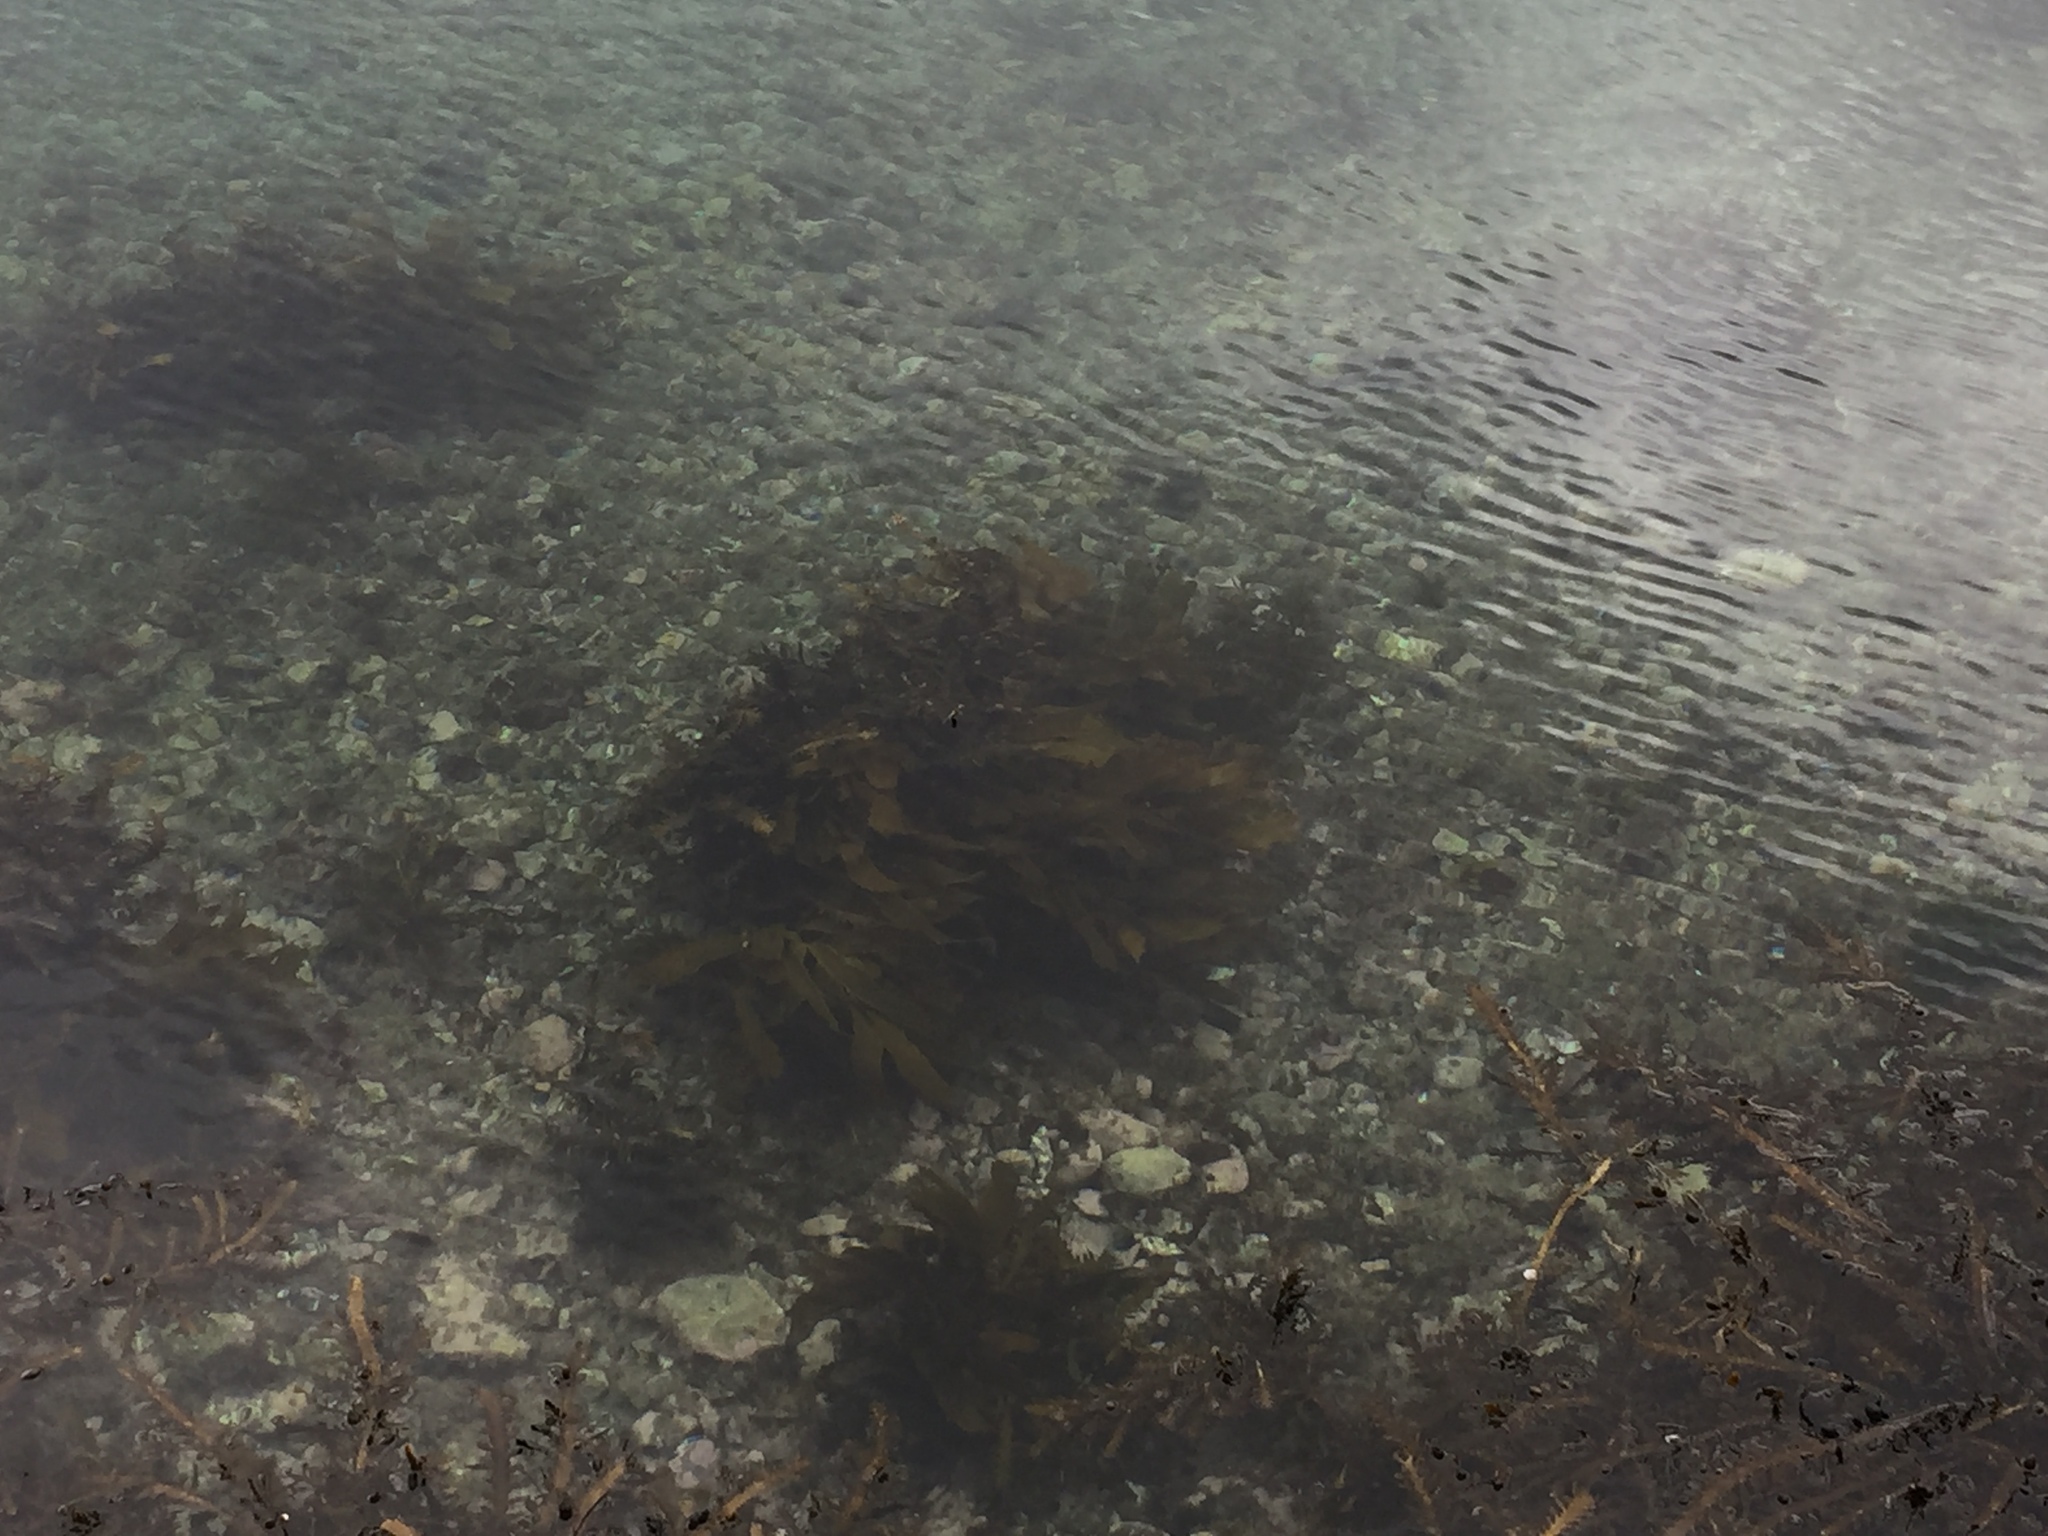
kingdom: Chromista
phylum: Ochrophyta
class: Phaeophyceae
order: Laminariales
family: Lessoniaceae
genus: Ecklonia
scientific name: Ecklonia radiata
